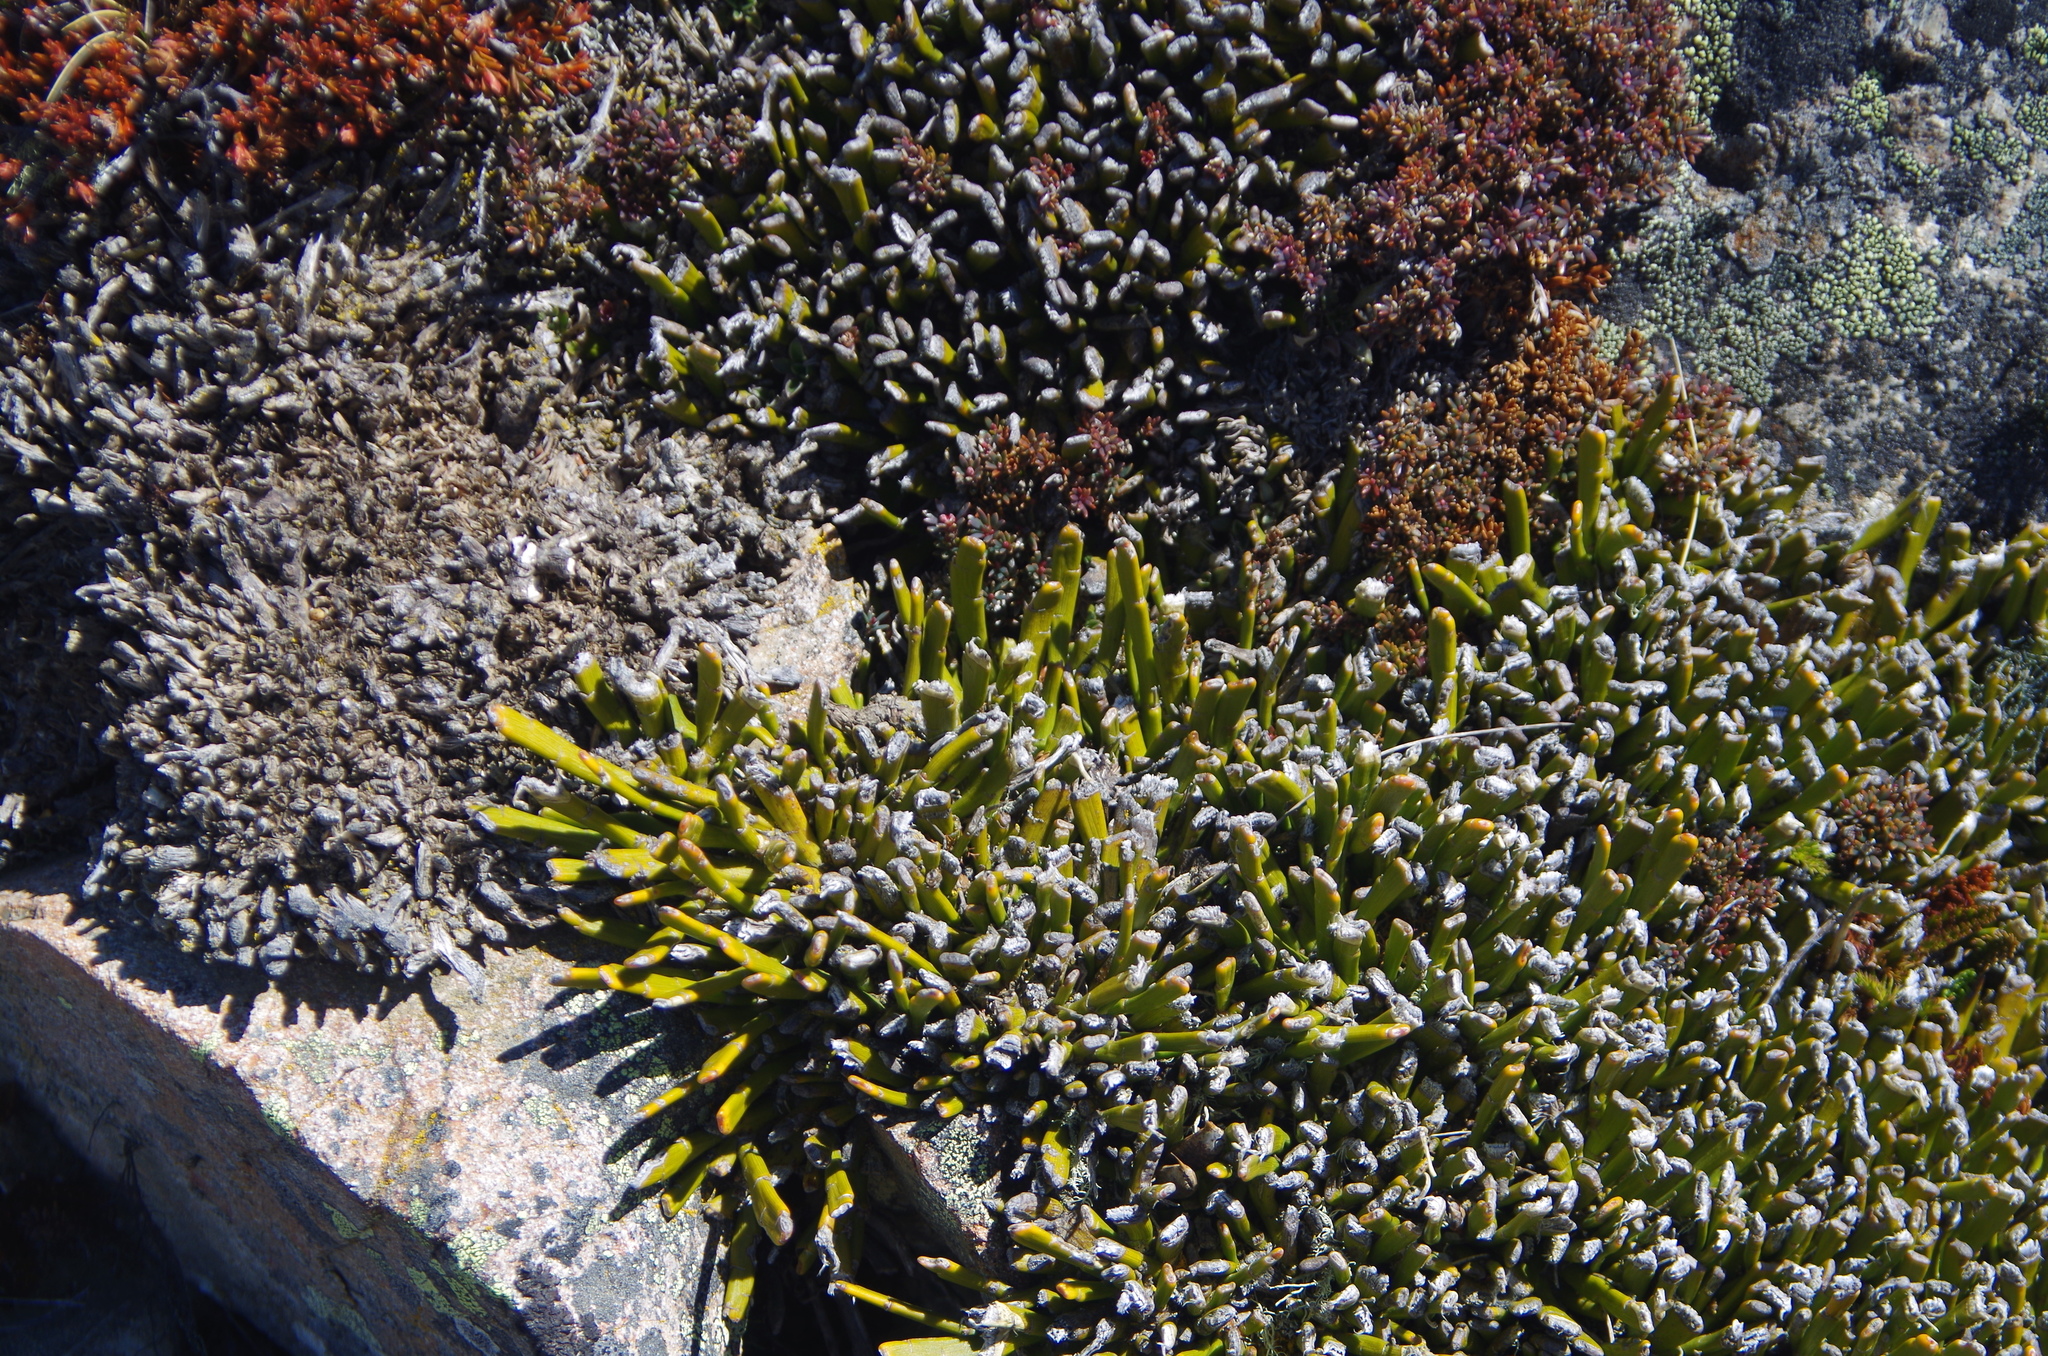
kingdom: Plantae
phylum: Tracheophyta
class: Magnoliopsida
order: Fabales
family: Fabaceae
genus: Carmichaelia
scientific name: Carmichaelia monroi
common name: Stout dwarf broom
